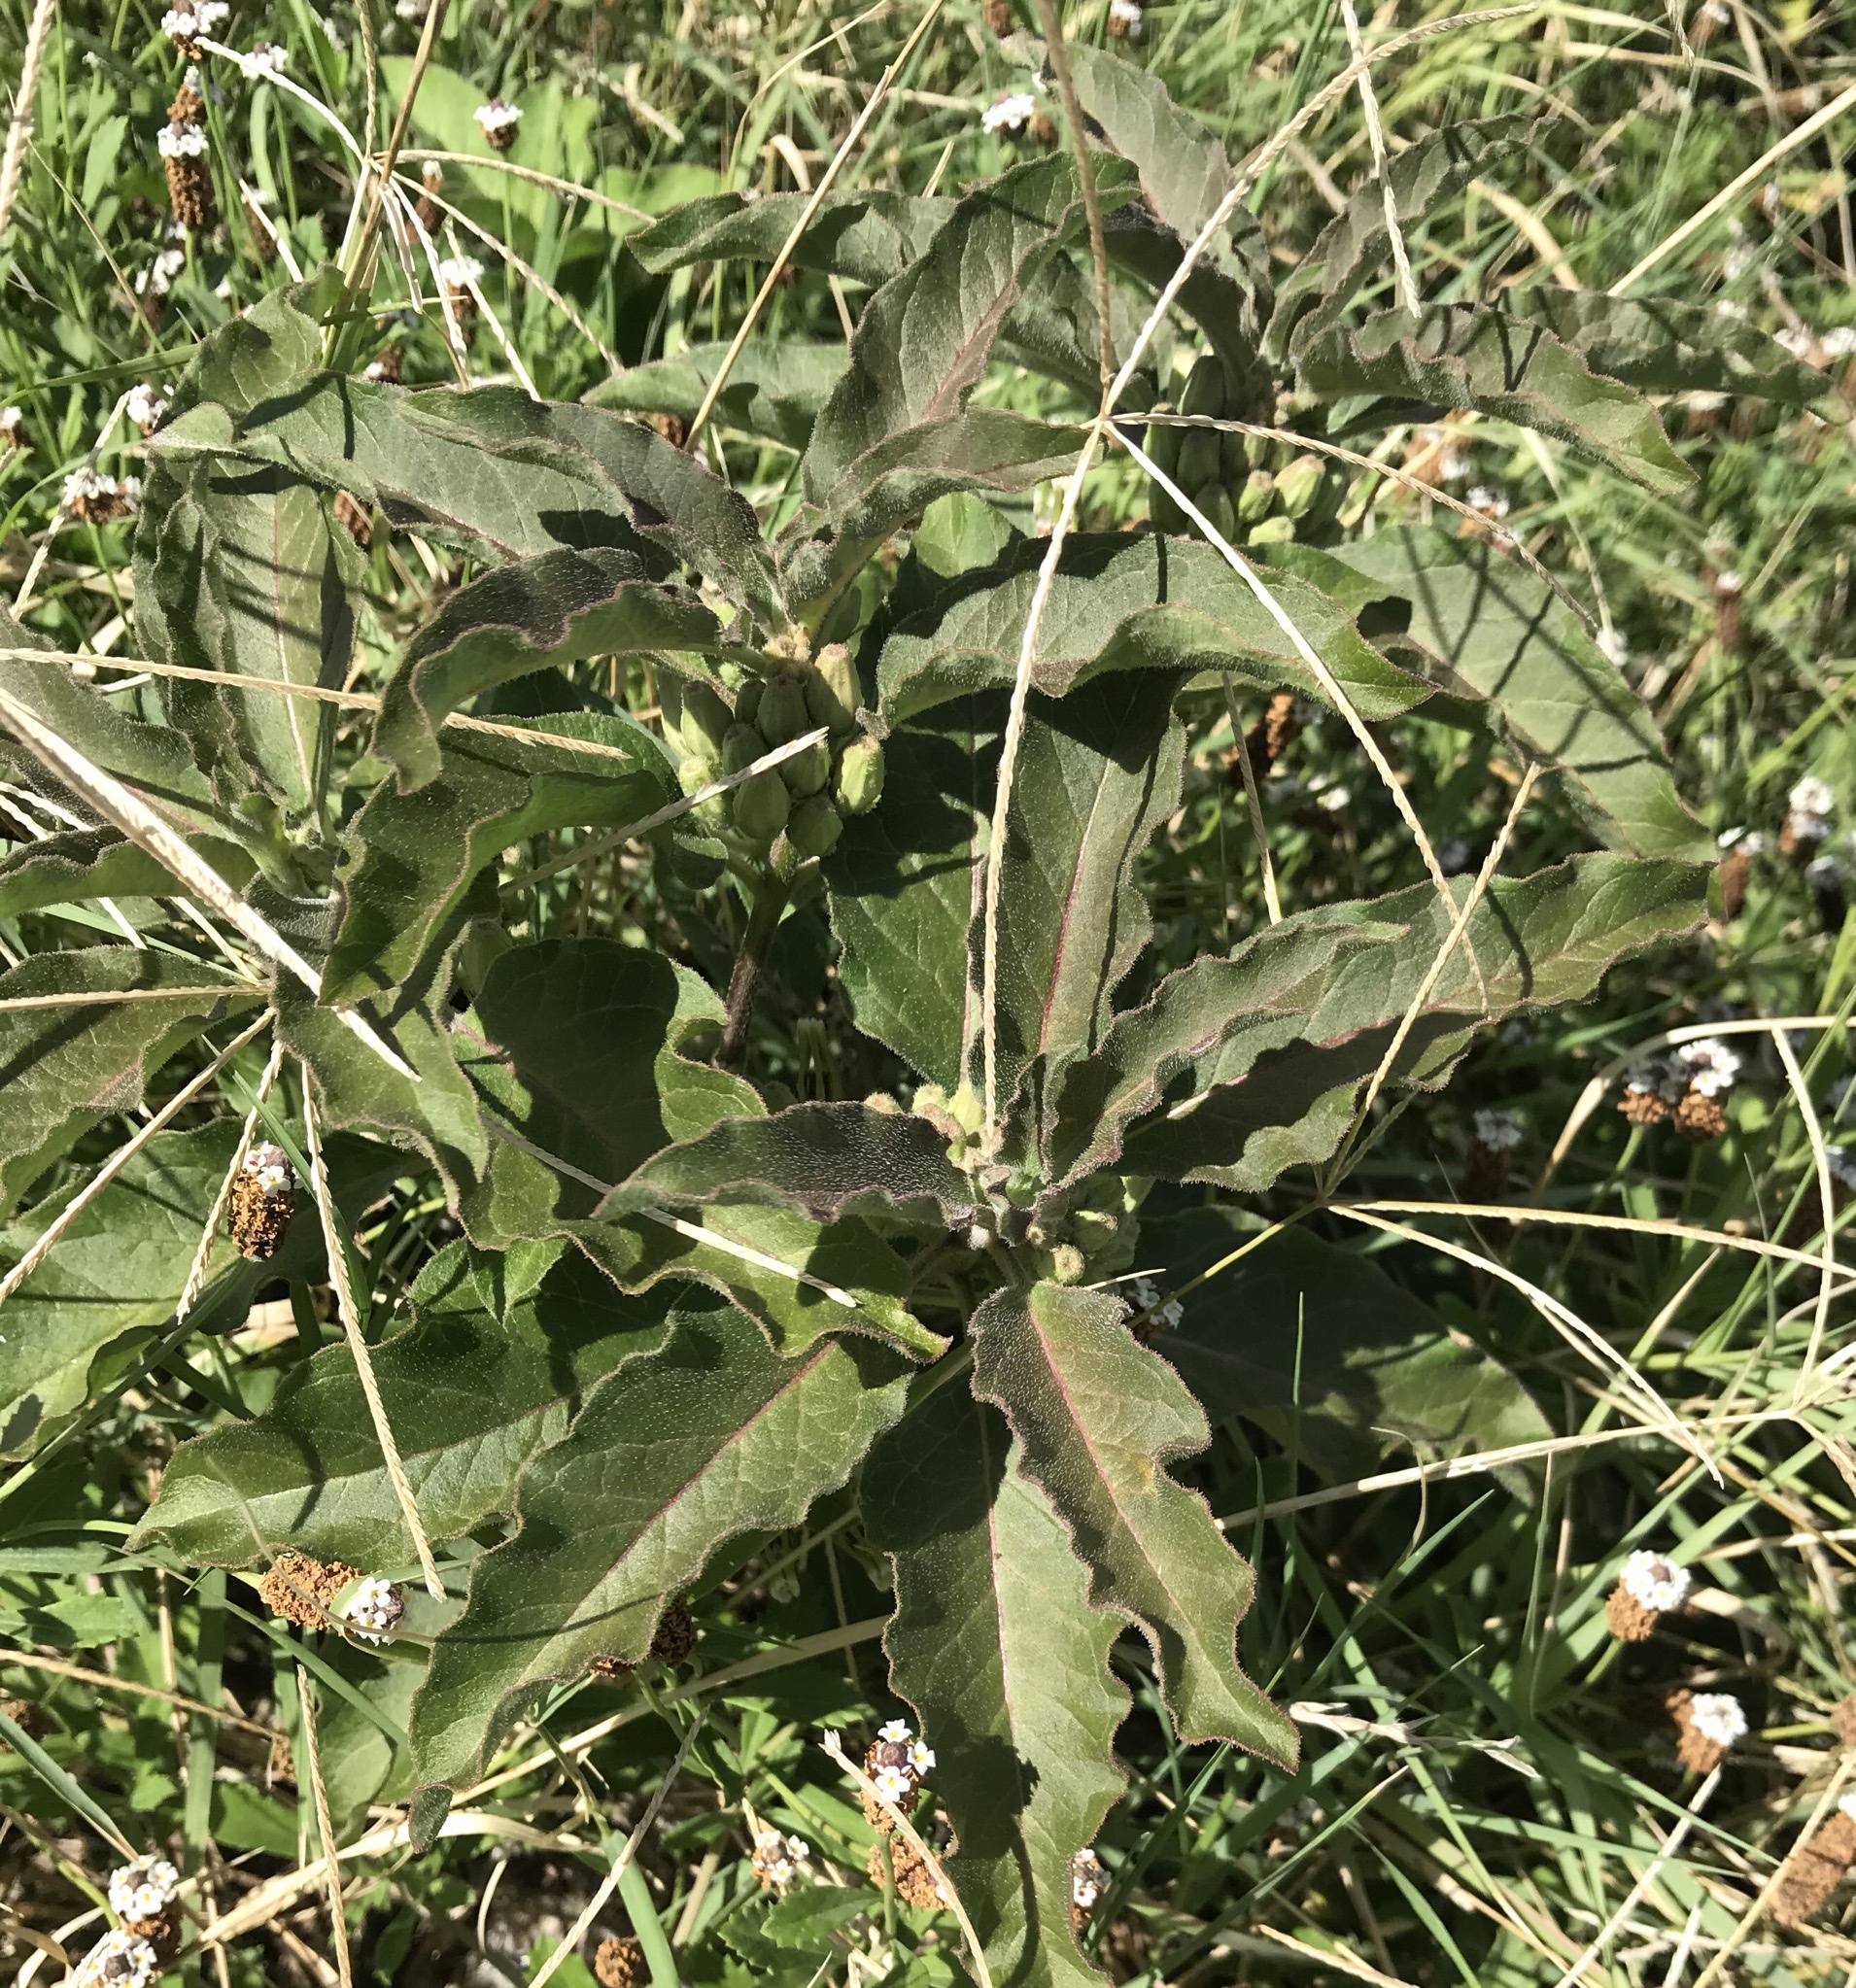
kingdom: Plantae
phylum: Tracheophyta
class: Magnoliopsida
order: Gentianales
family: Apocynaceae
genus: Asclepias
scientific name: Asclepias oenotheroides
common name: Zizotes milkweed
